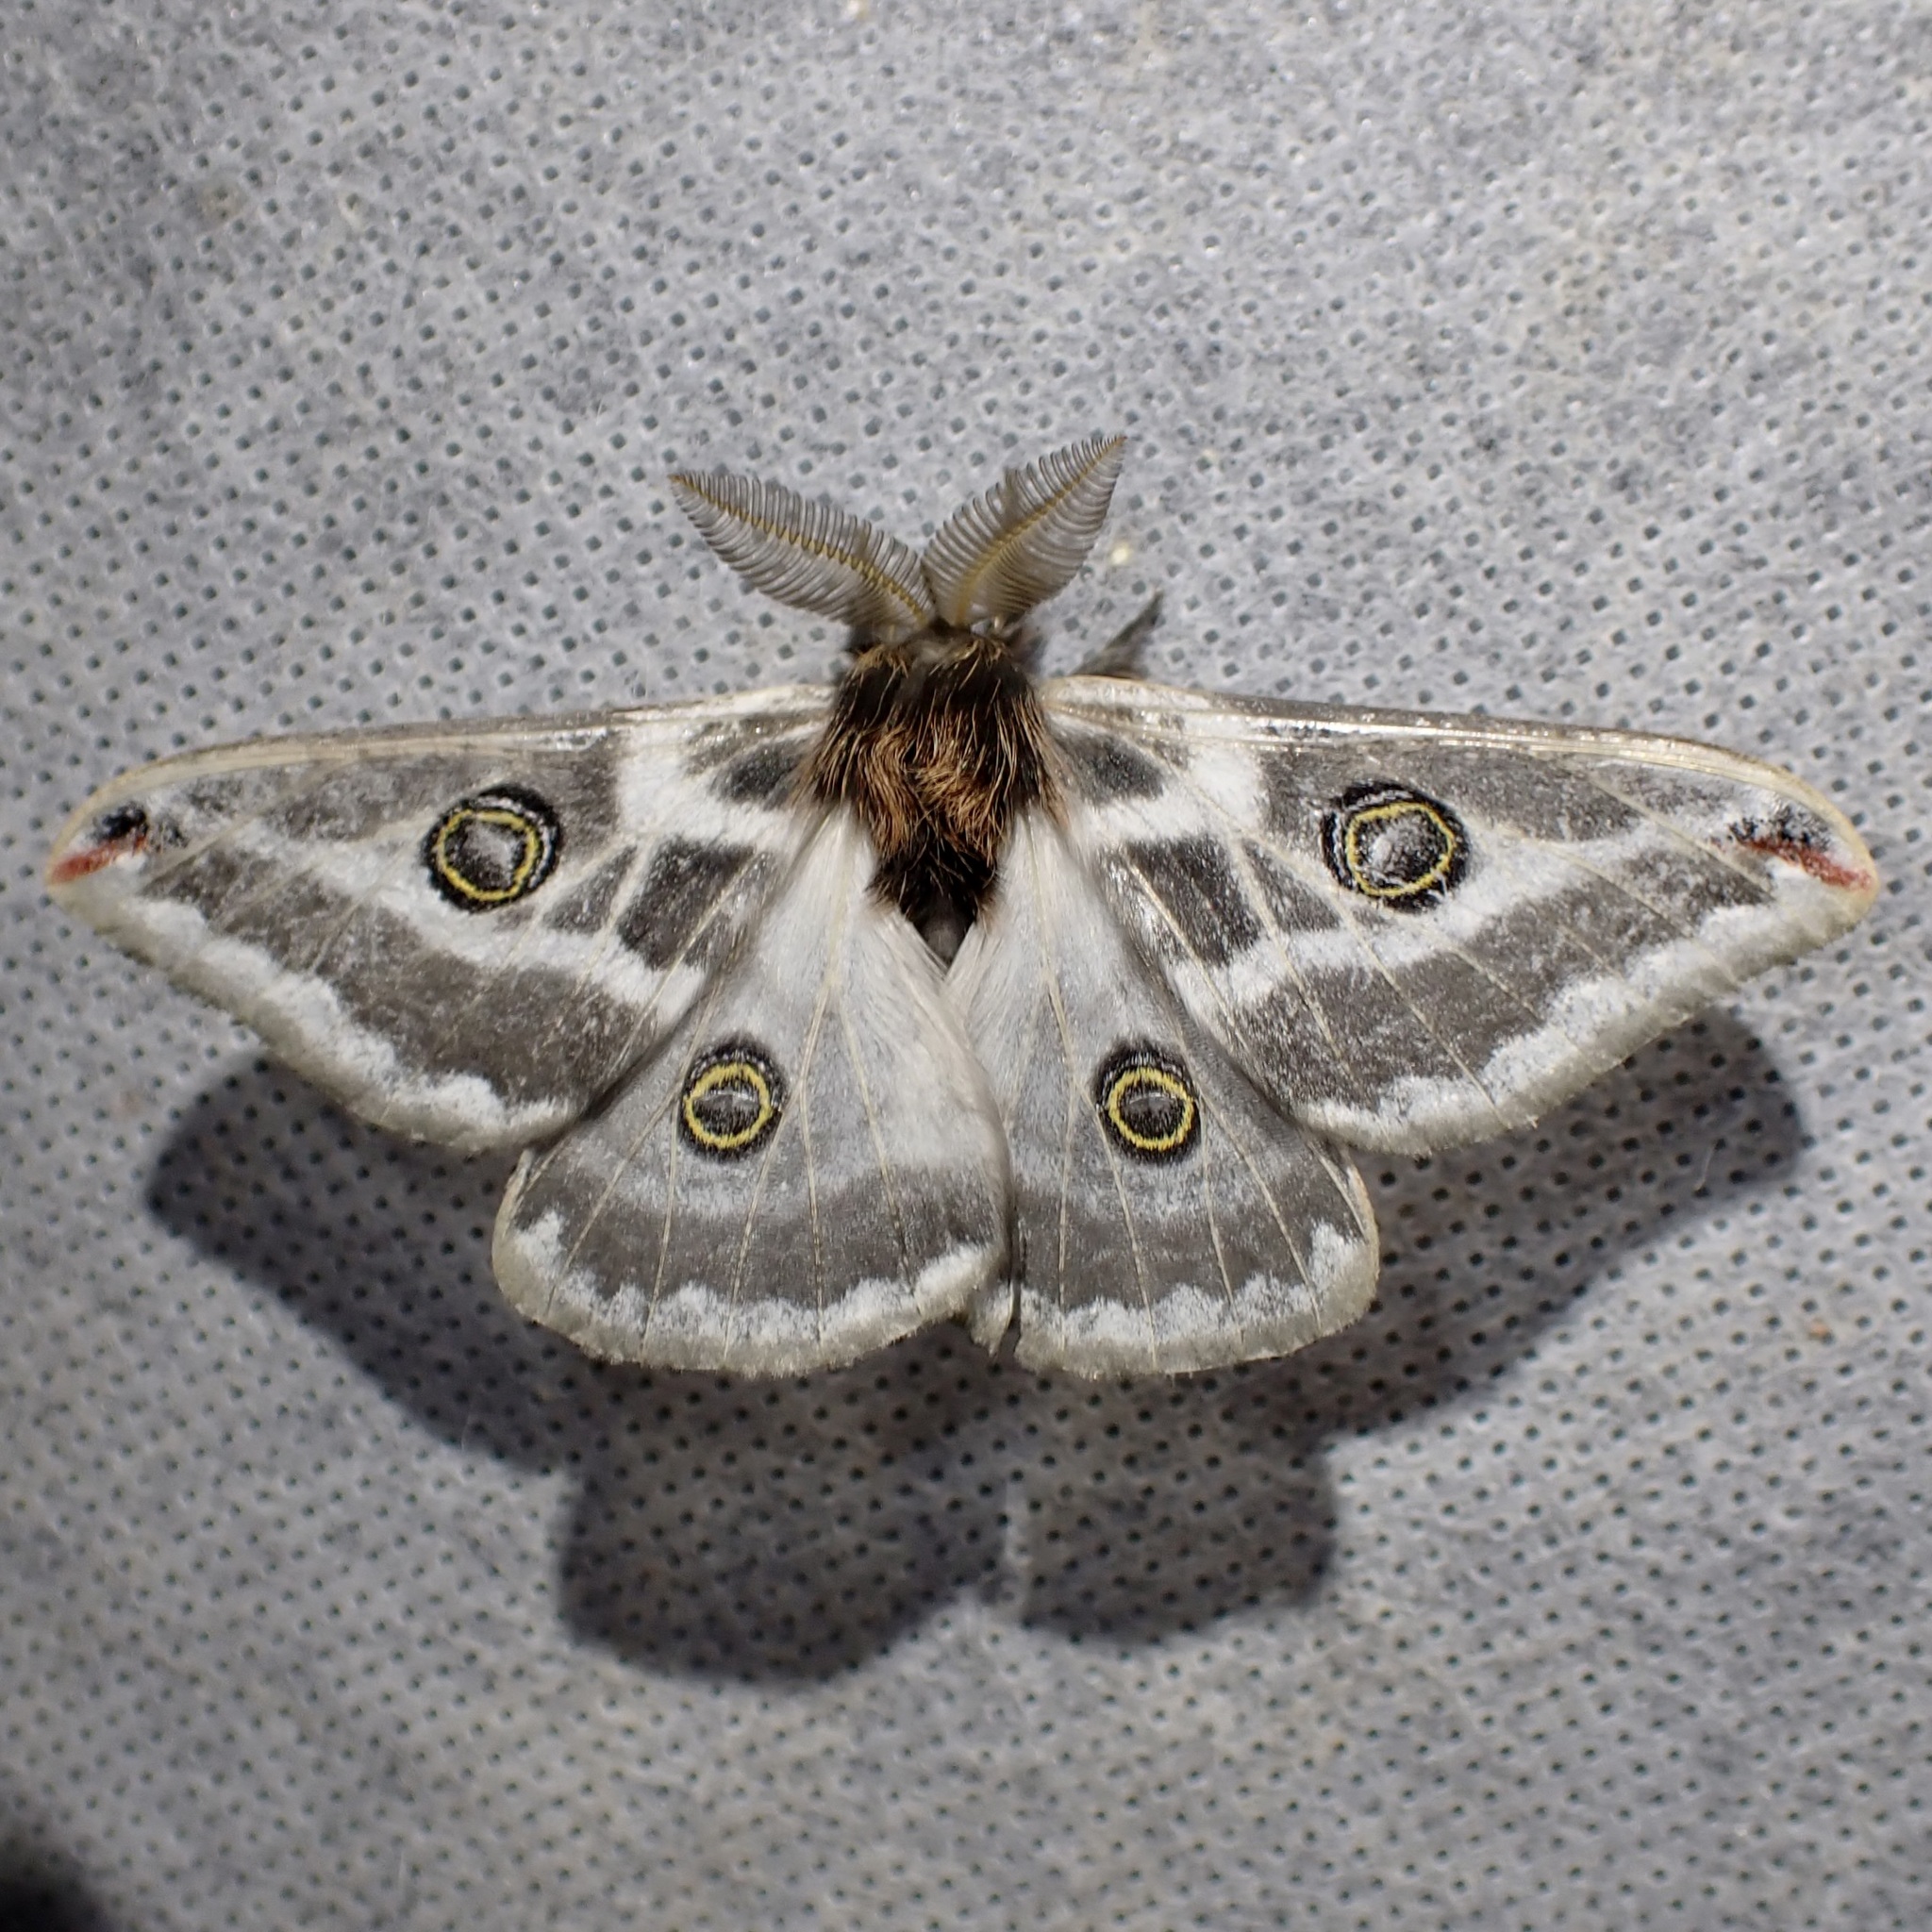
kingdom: Animalia
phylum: Arthropoda
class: Insecta
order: Lepidoptera
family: Saturniidae
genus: Saturnia
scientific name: Saturnia anona
